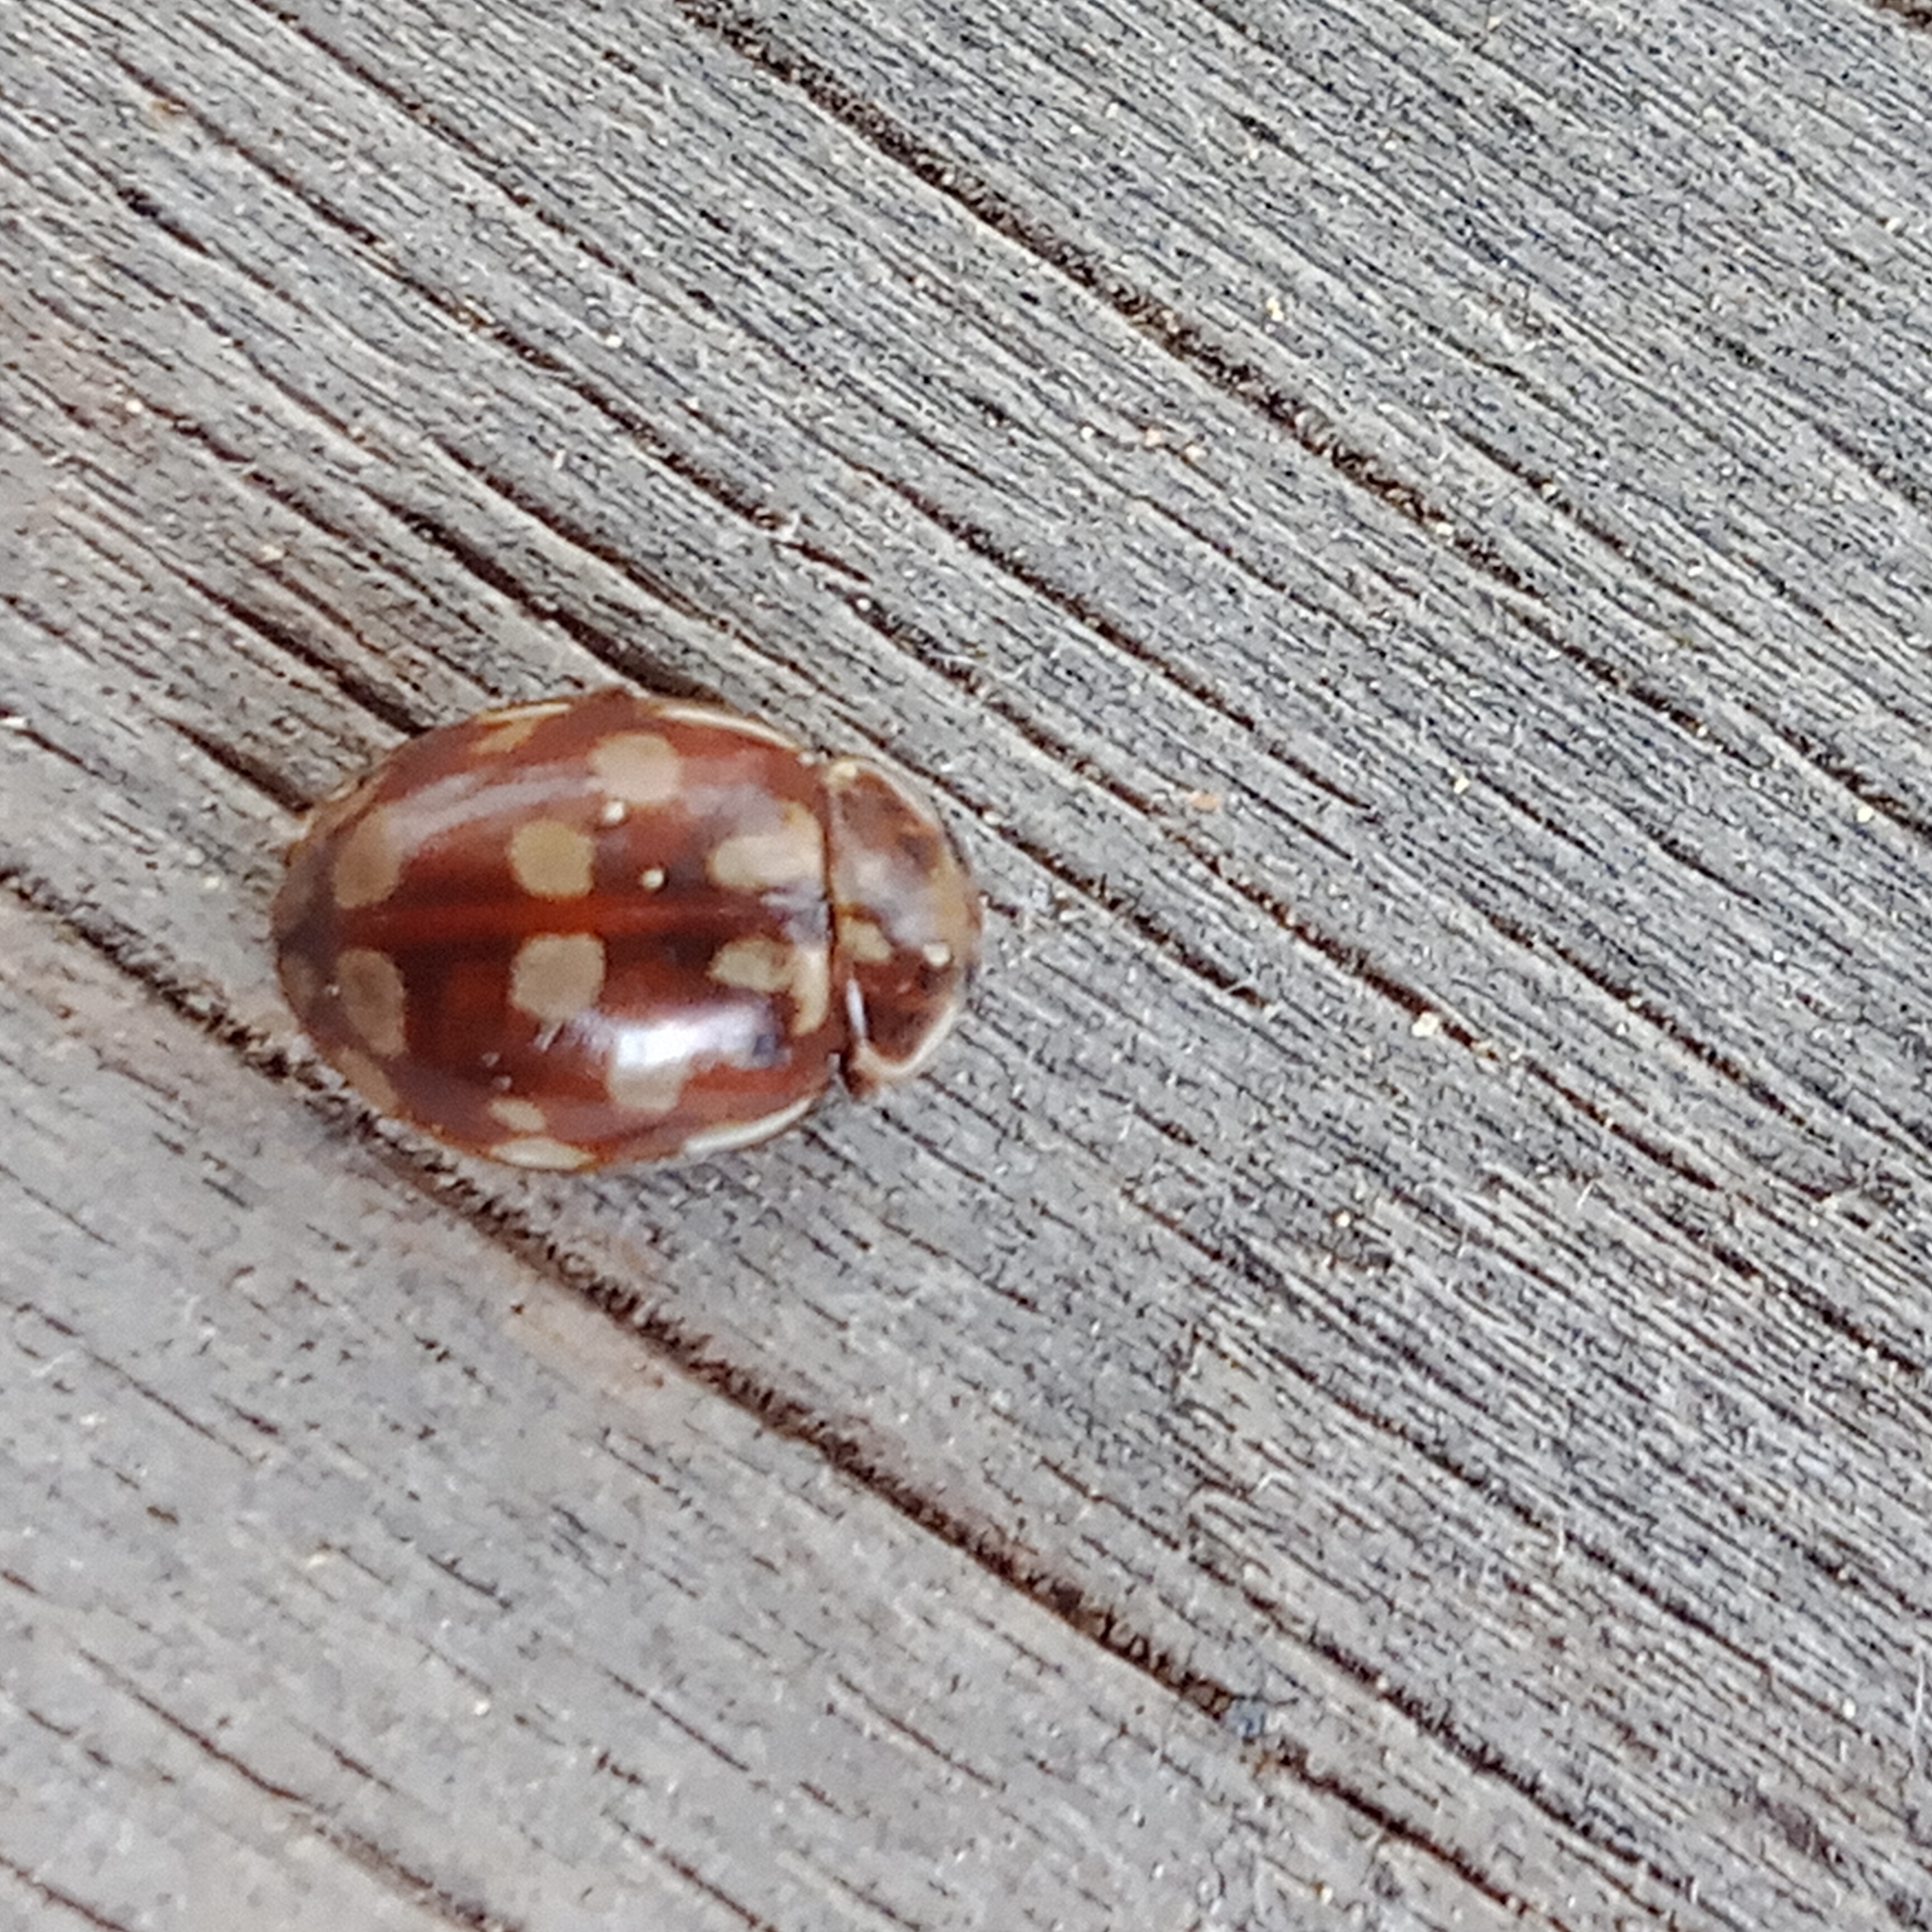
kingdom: Animalia
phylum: Arthropoda
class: Insecta
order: Coleoptera
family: Coccinellidae
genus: Myrrha
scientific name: Myrrha octodecimguttata
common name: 18-spot ladybird
